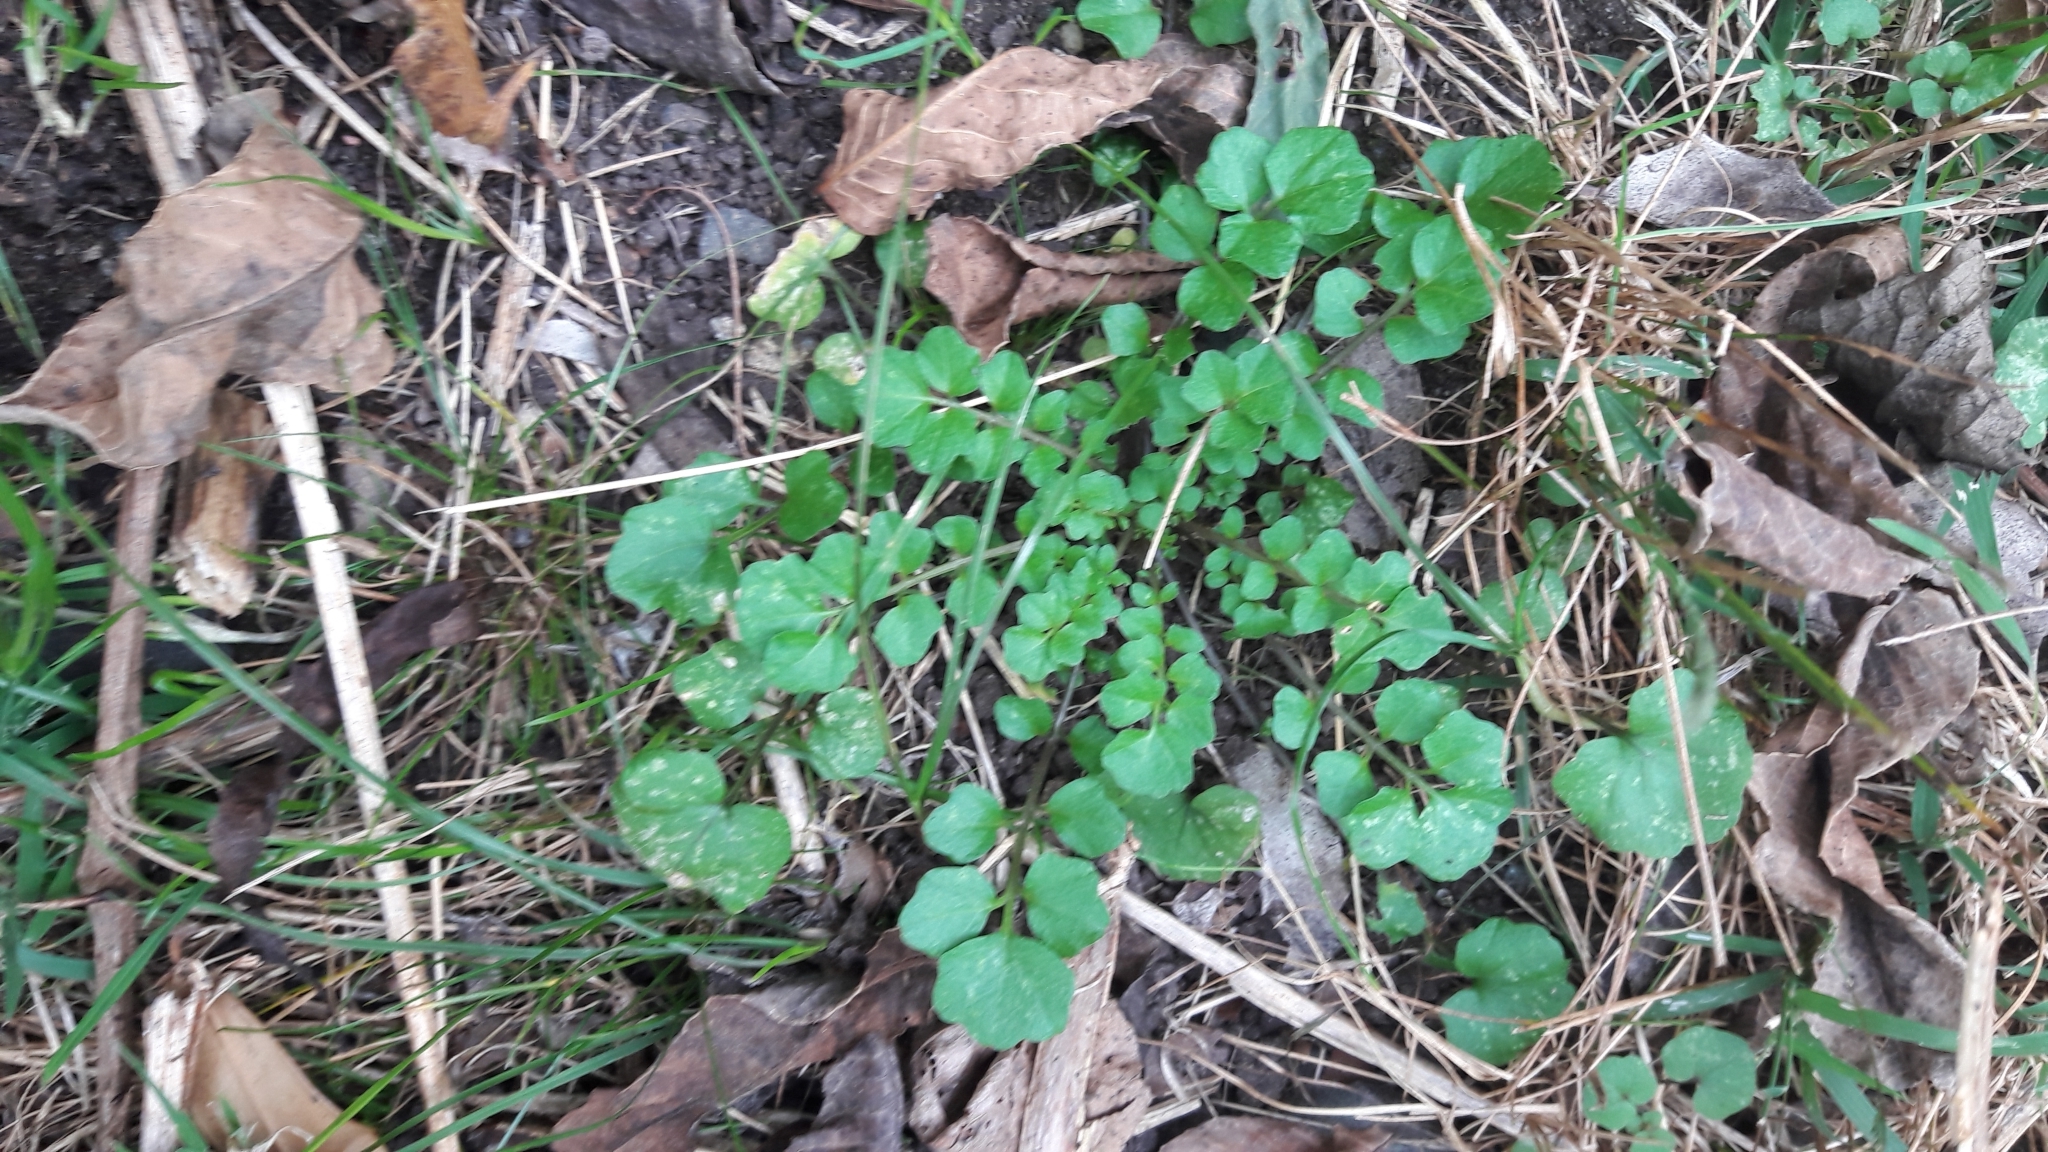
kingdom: Plantae
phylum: Tracheophyta
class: Magnoliopsida
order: Brassicales
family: Brassicaceae
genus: Cardamine
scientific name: Cardamine hirsuta
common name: Hairy bittercress
